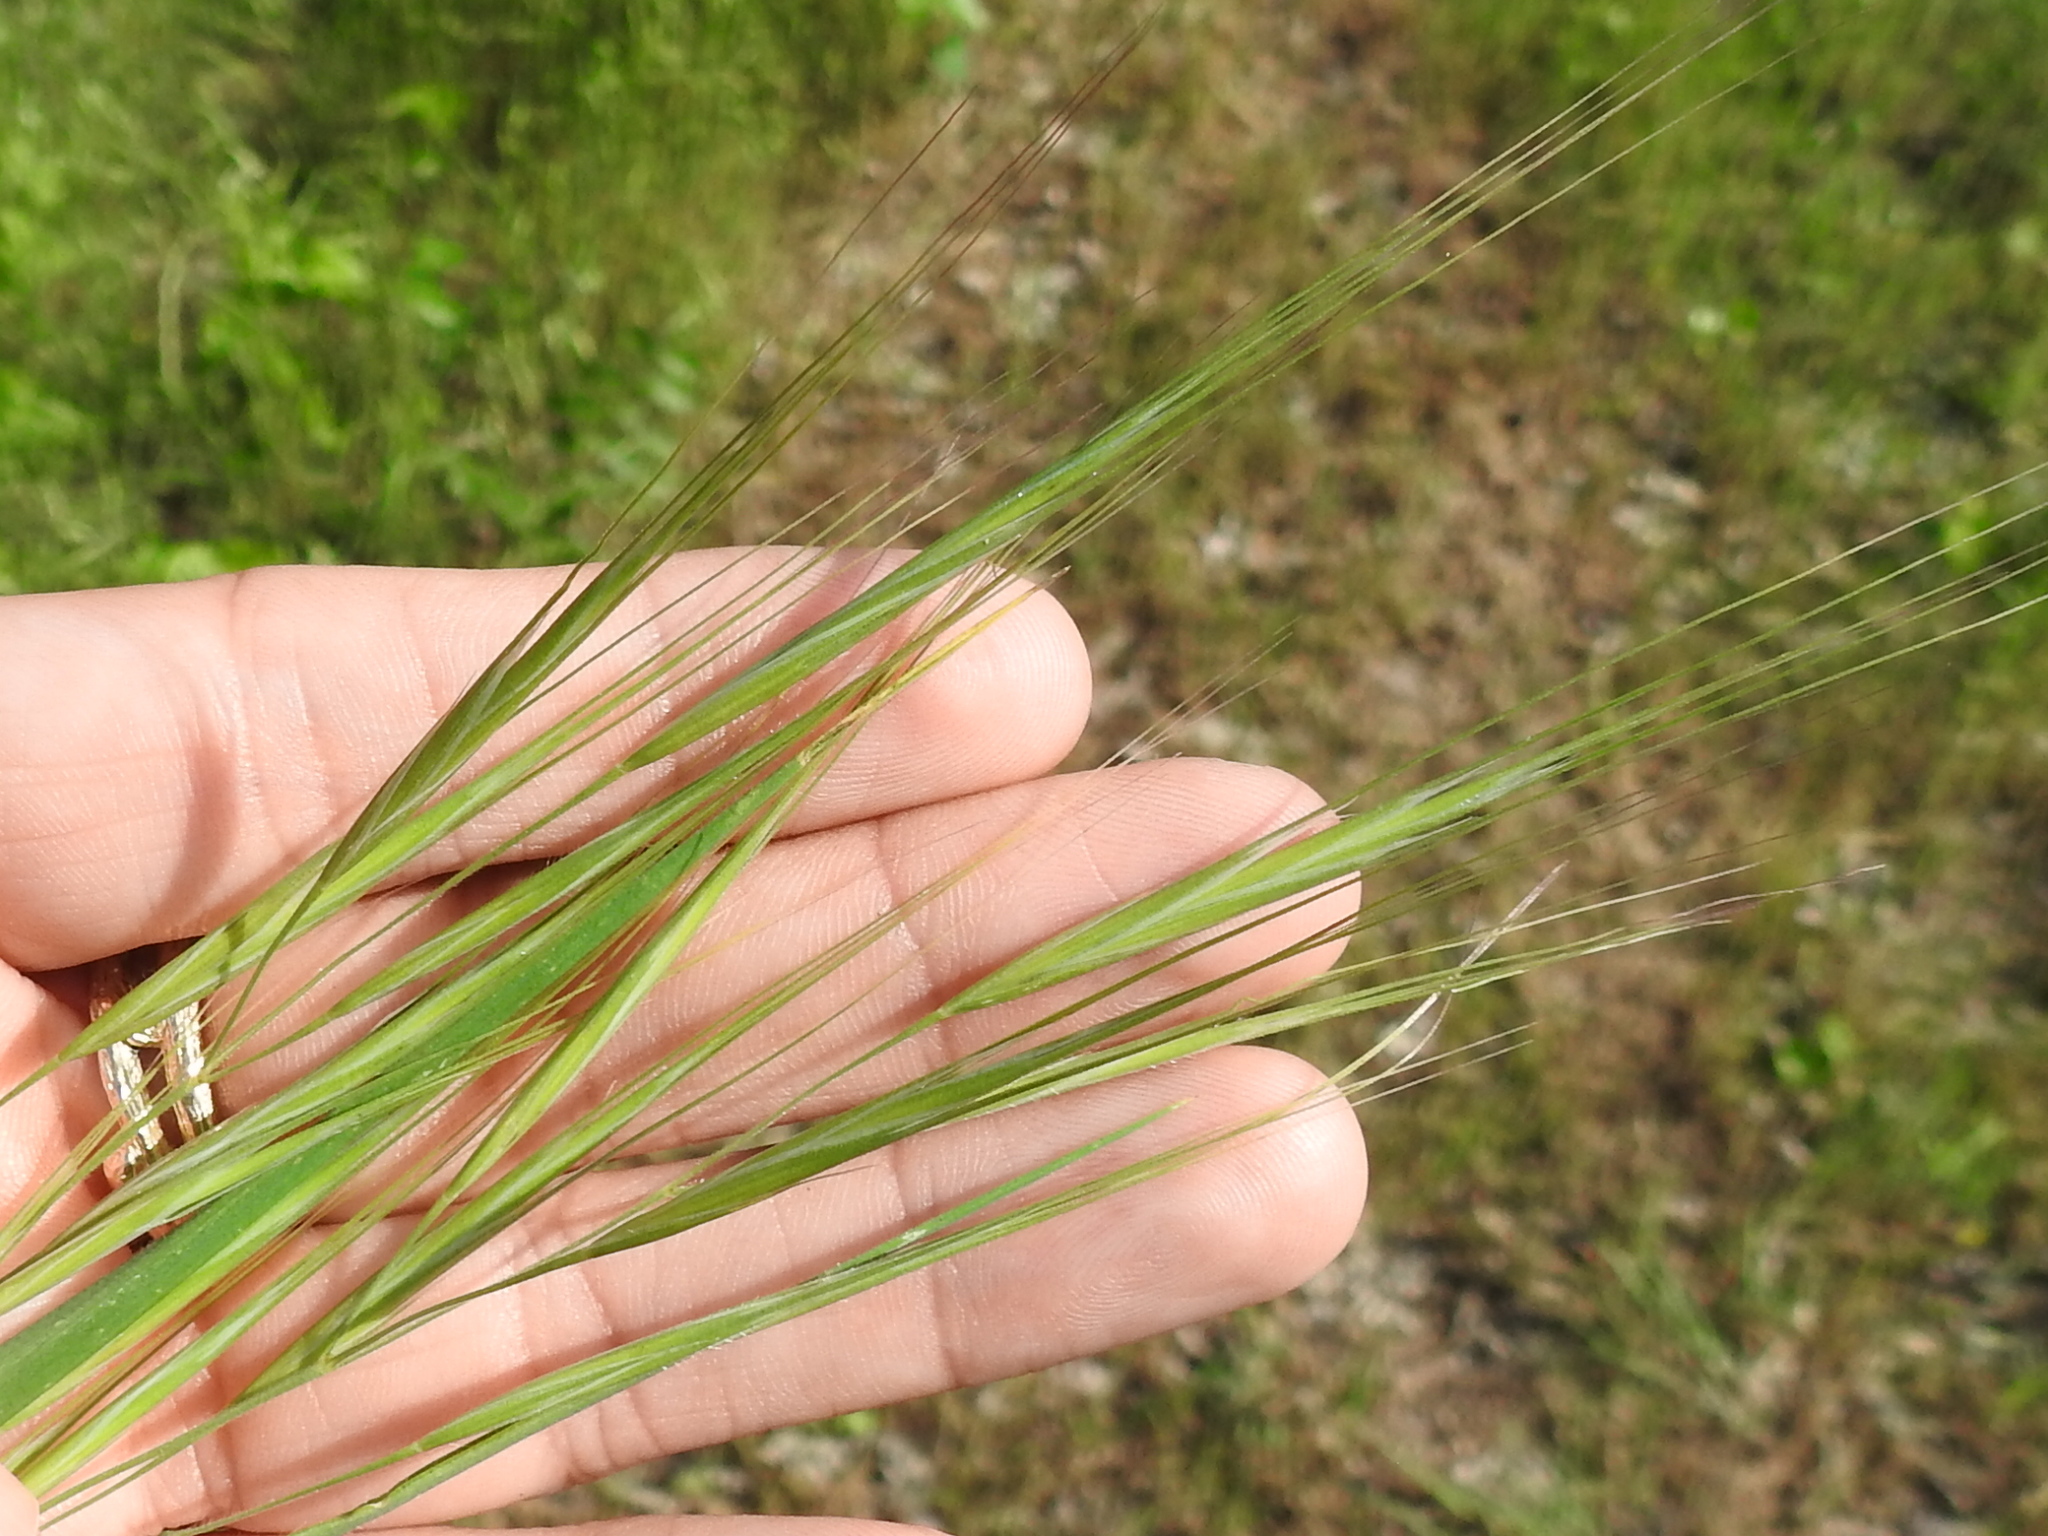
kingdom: Plantae
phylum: Tracheophyta
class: Liliopsida
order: Poales
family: Poaceae
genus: Bromus
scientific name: Bromus diandrus
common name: Ripgut brome
